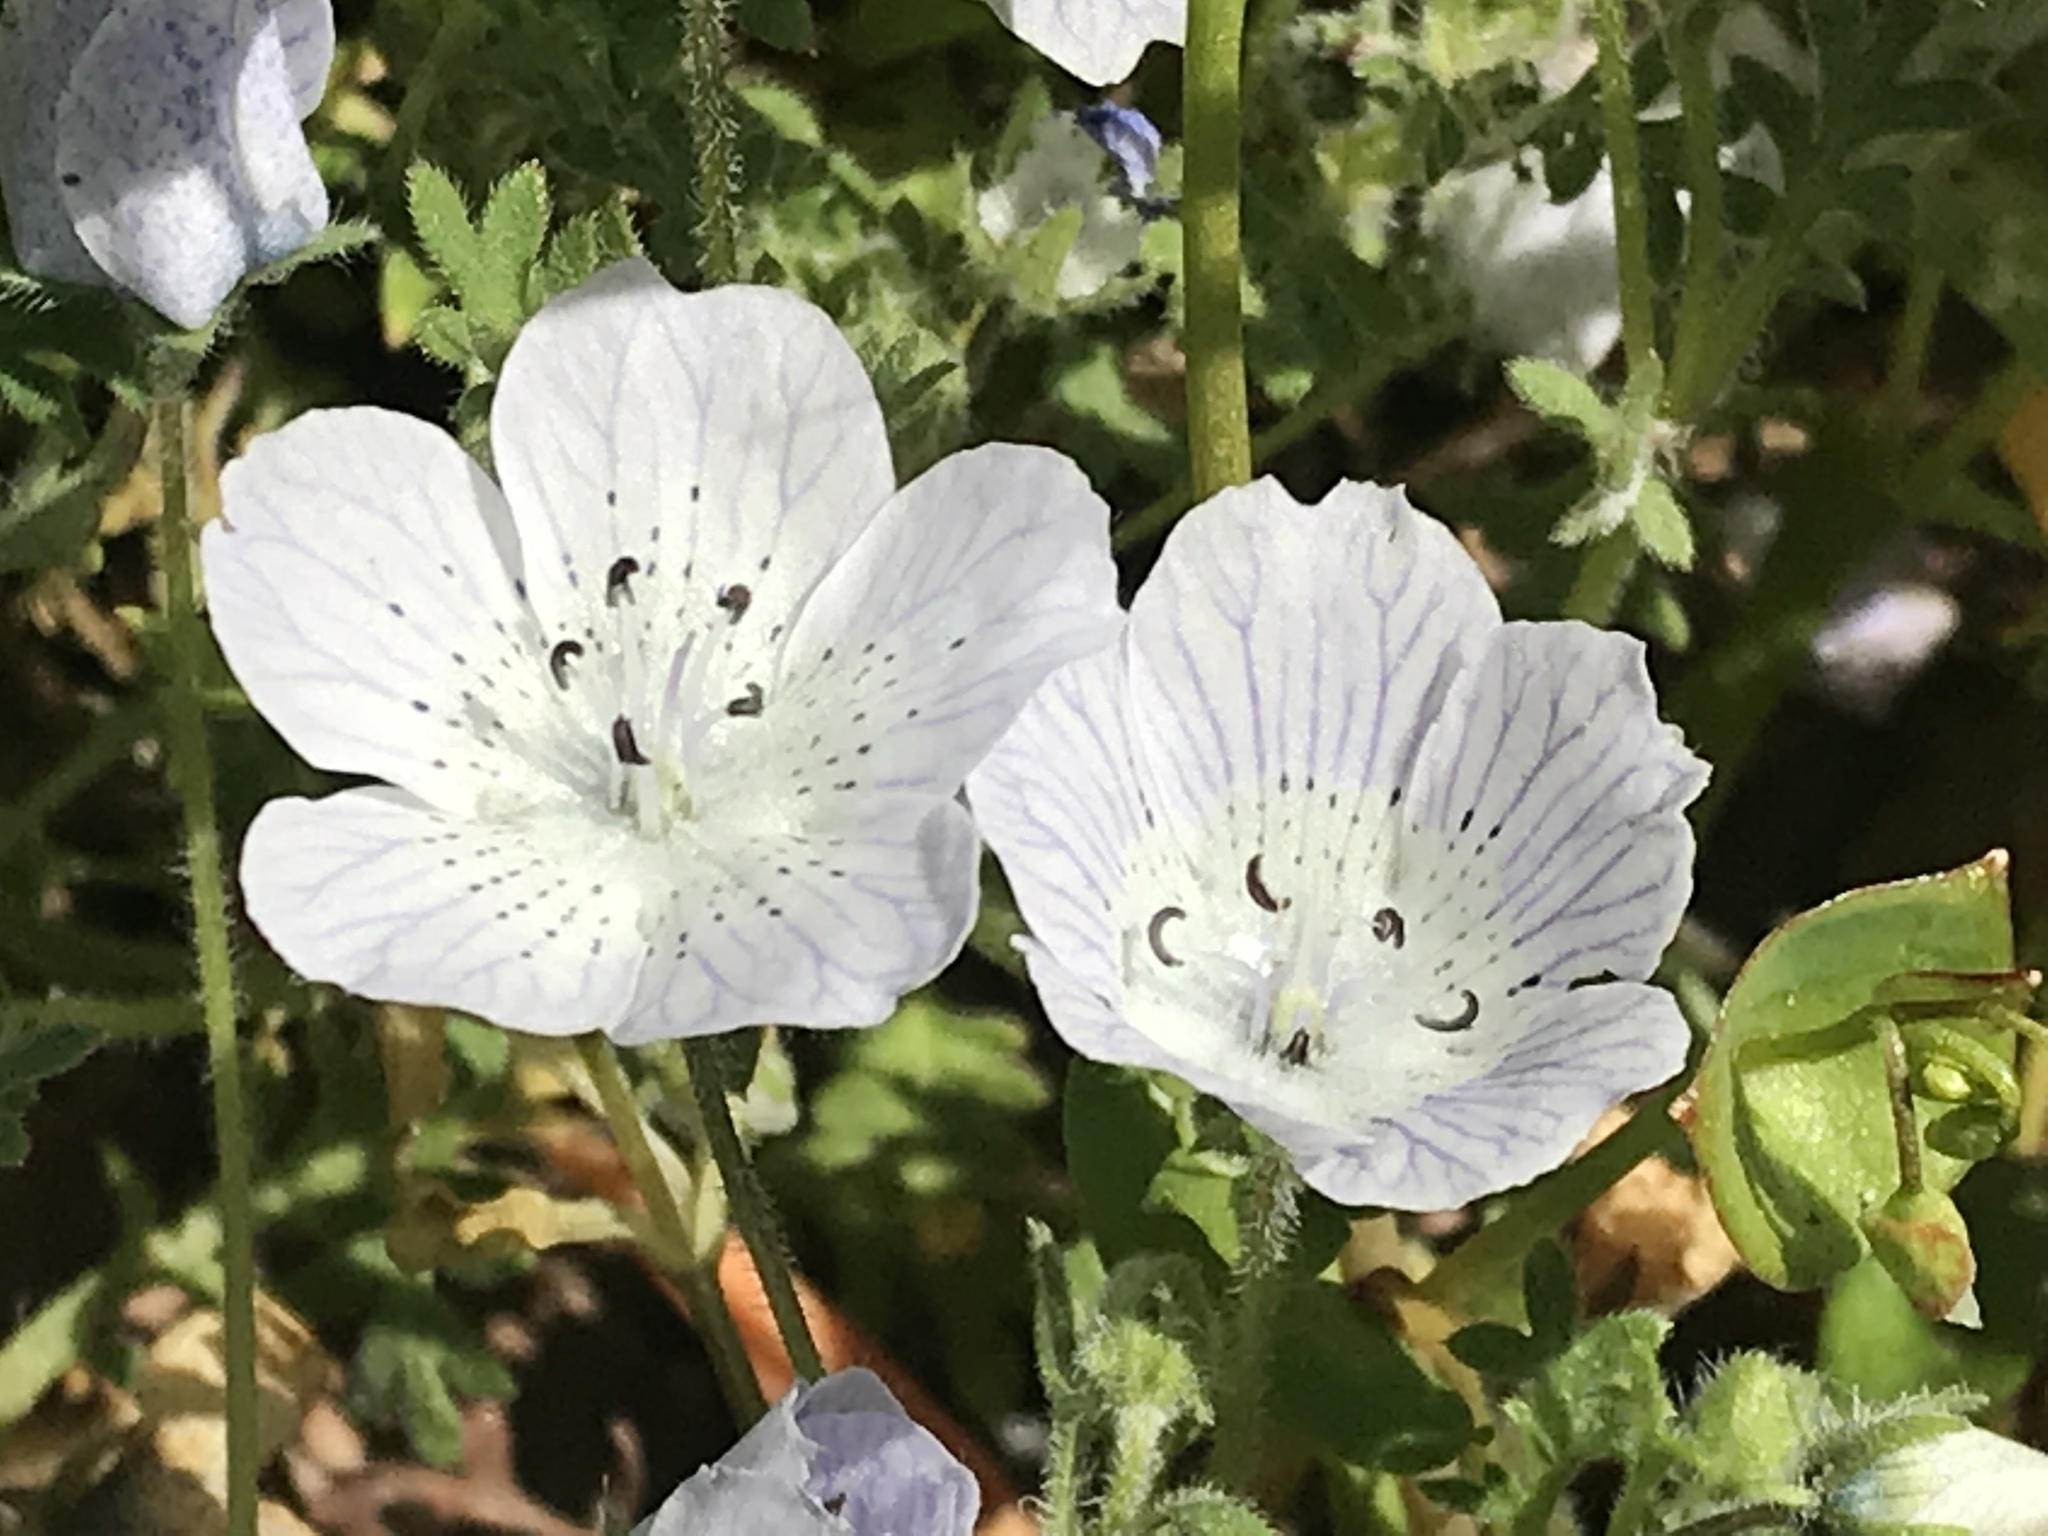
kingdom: Plantae
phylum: Tracheophyta
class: Magnoliopsida
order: Boraginales
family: Hydrophyllaceae
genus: Nemophila
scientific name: Nemophila menziesii
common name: Baby's-blue-eyes
